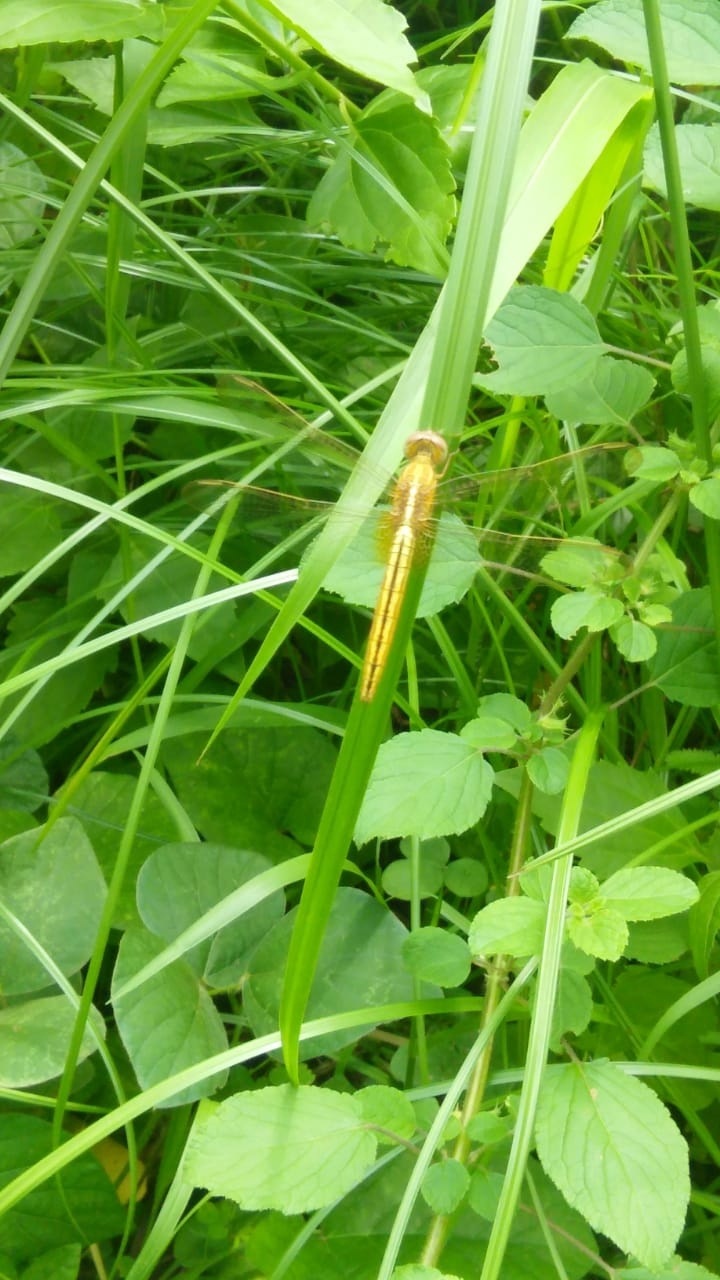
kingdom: Animalia
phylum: Arthropoda
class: Insecta
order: Odonata
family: Libellulidae
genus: Crocothemis
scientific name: Crocothemis servilia
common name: Scarlet skimmer
